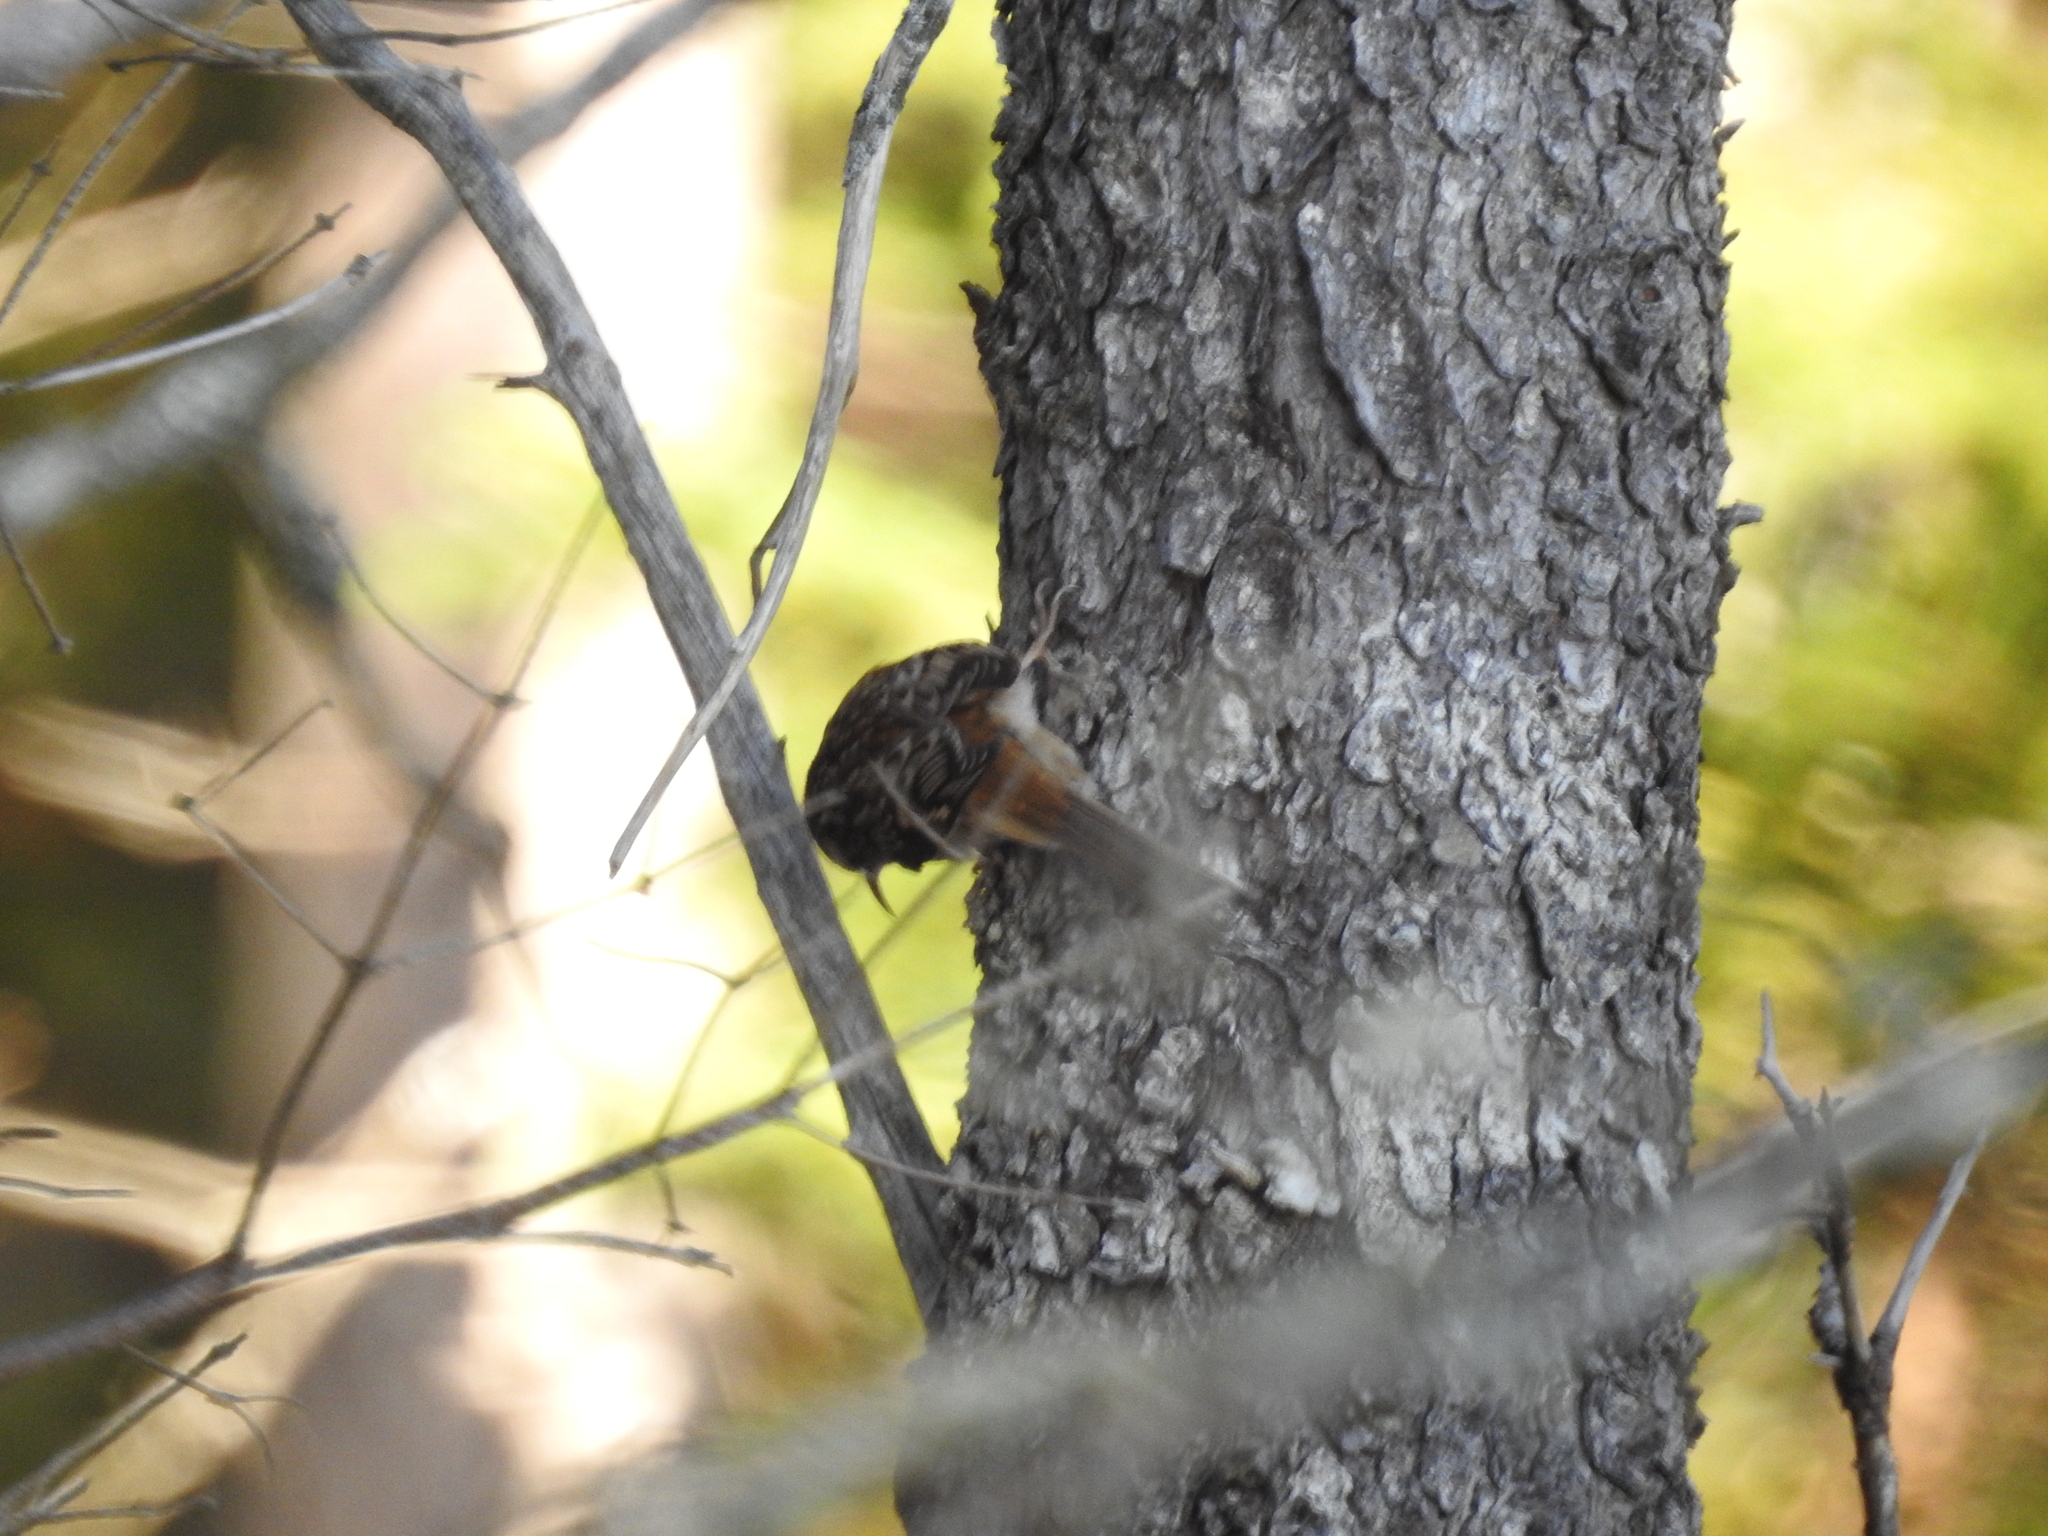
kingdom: Animalia
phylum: Chordata
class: Aves
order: Passeriformes
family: Certhiidae
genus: Certhia
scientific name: Certhia americana
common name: Brown creeper
